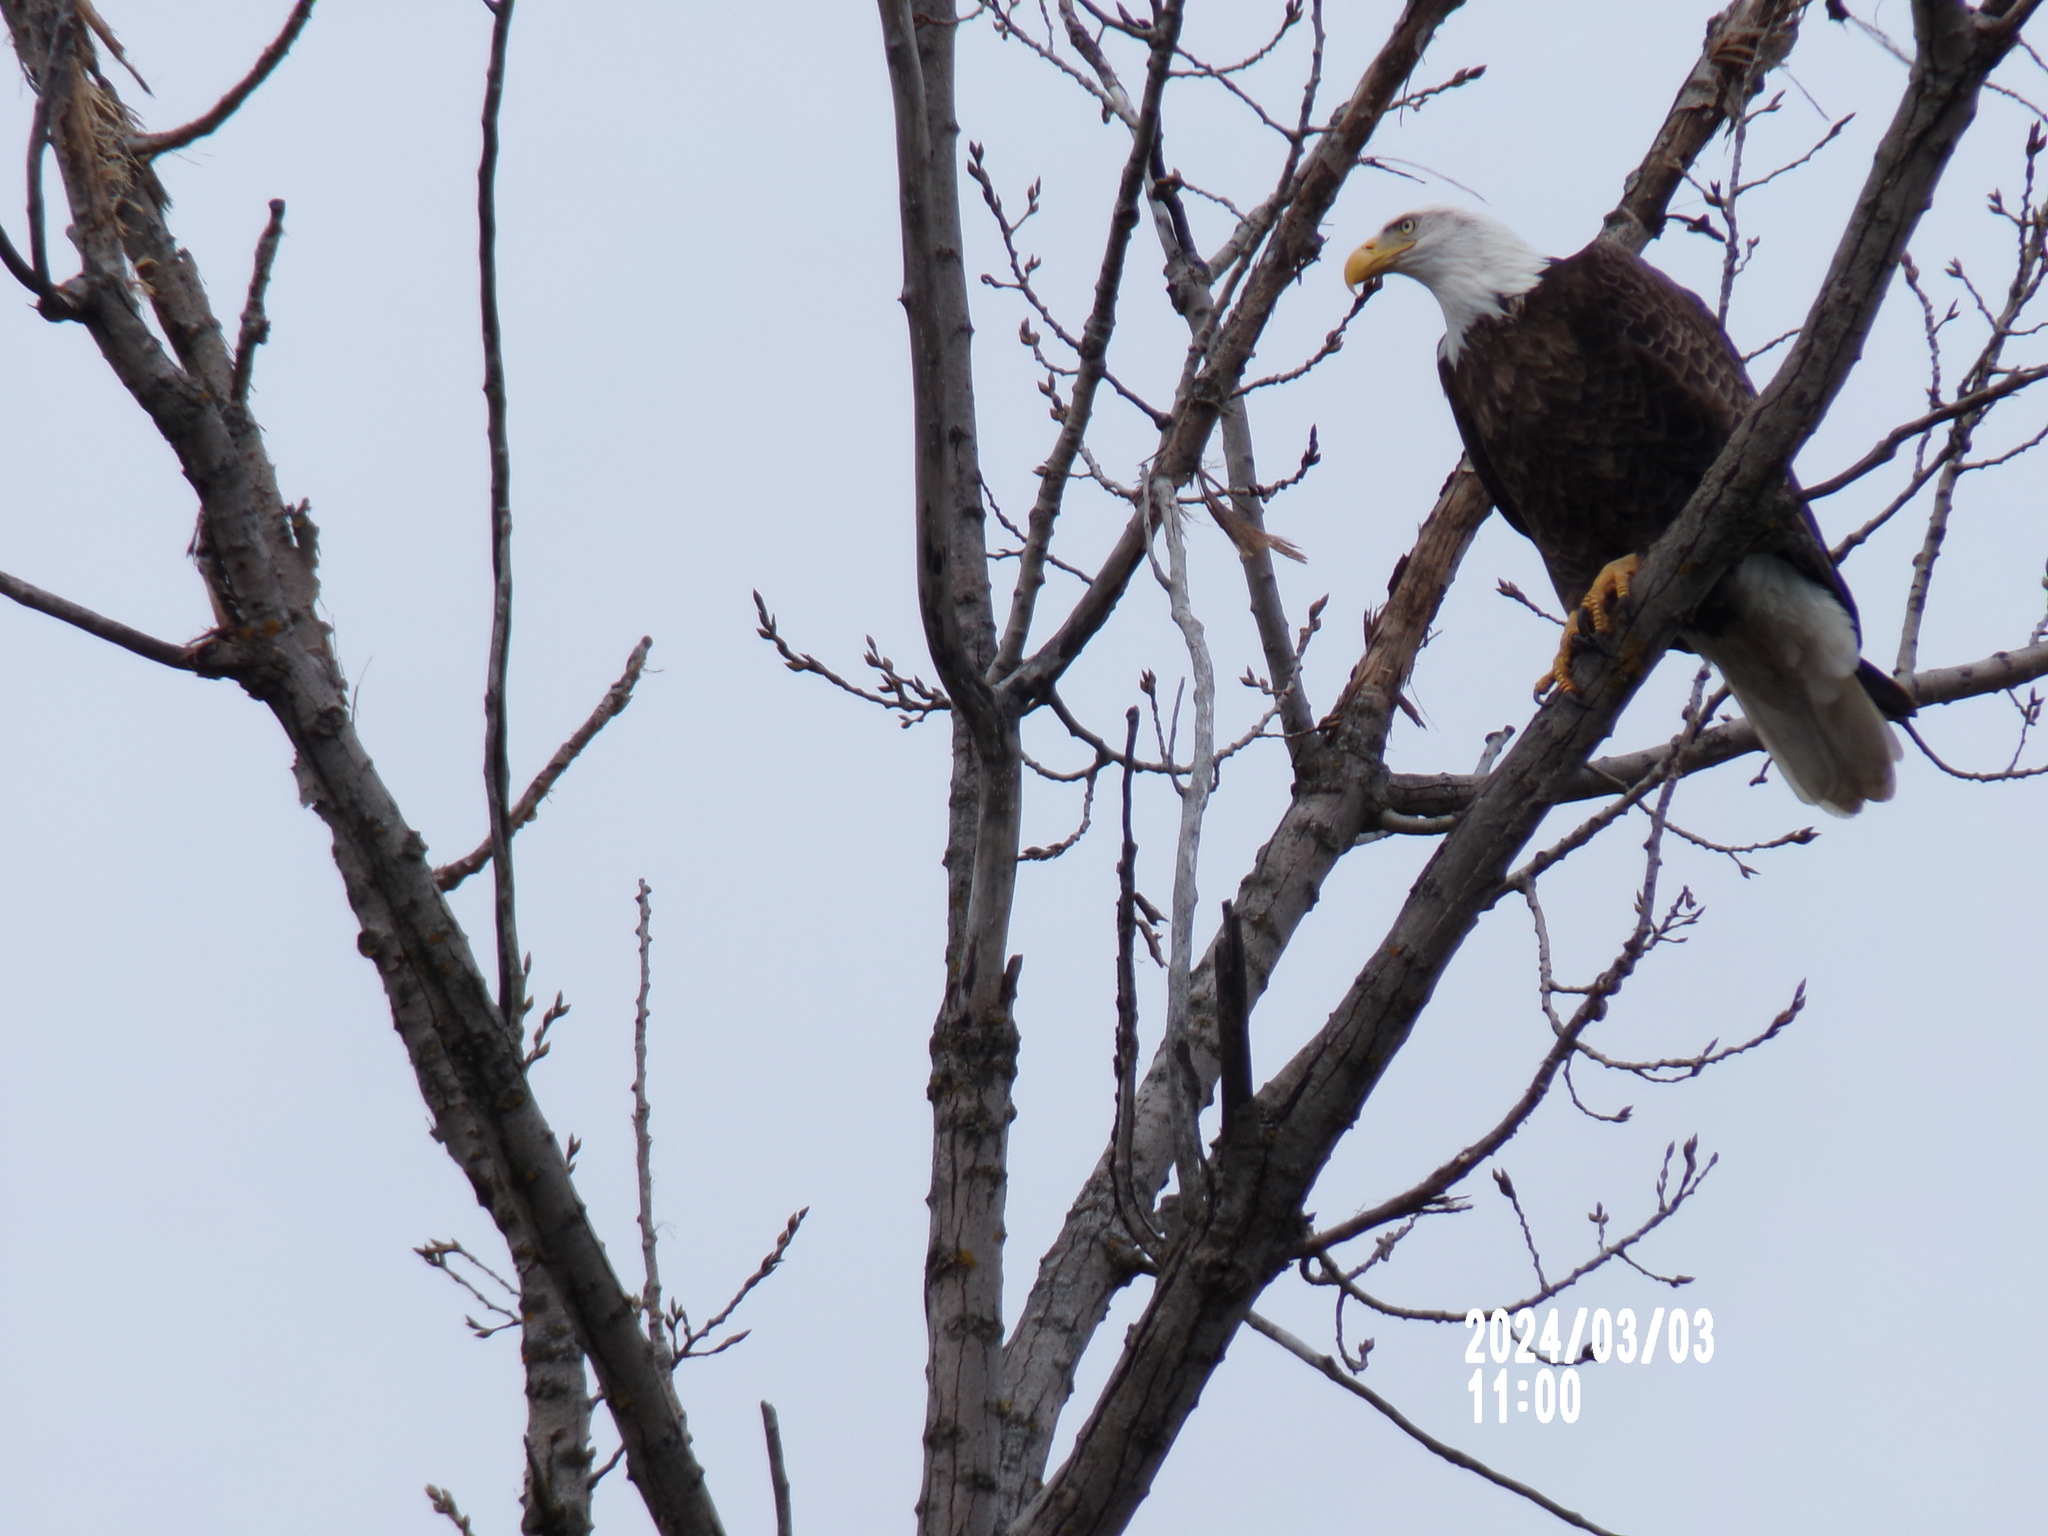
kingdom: Animalia
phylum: Chordata
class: Aves
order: Accipitriformes
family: Accipitridae
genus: Haliaeetus
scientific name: Haliaeetus leucocephalus
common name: Bald eagle
